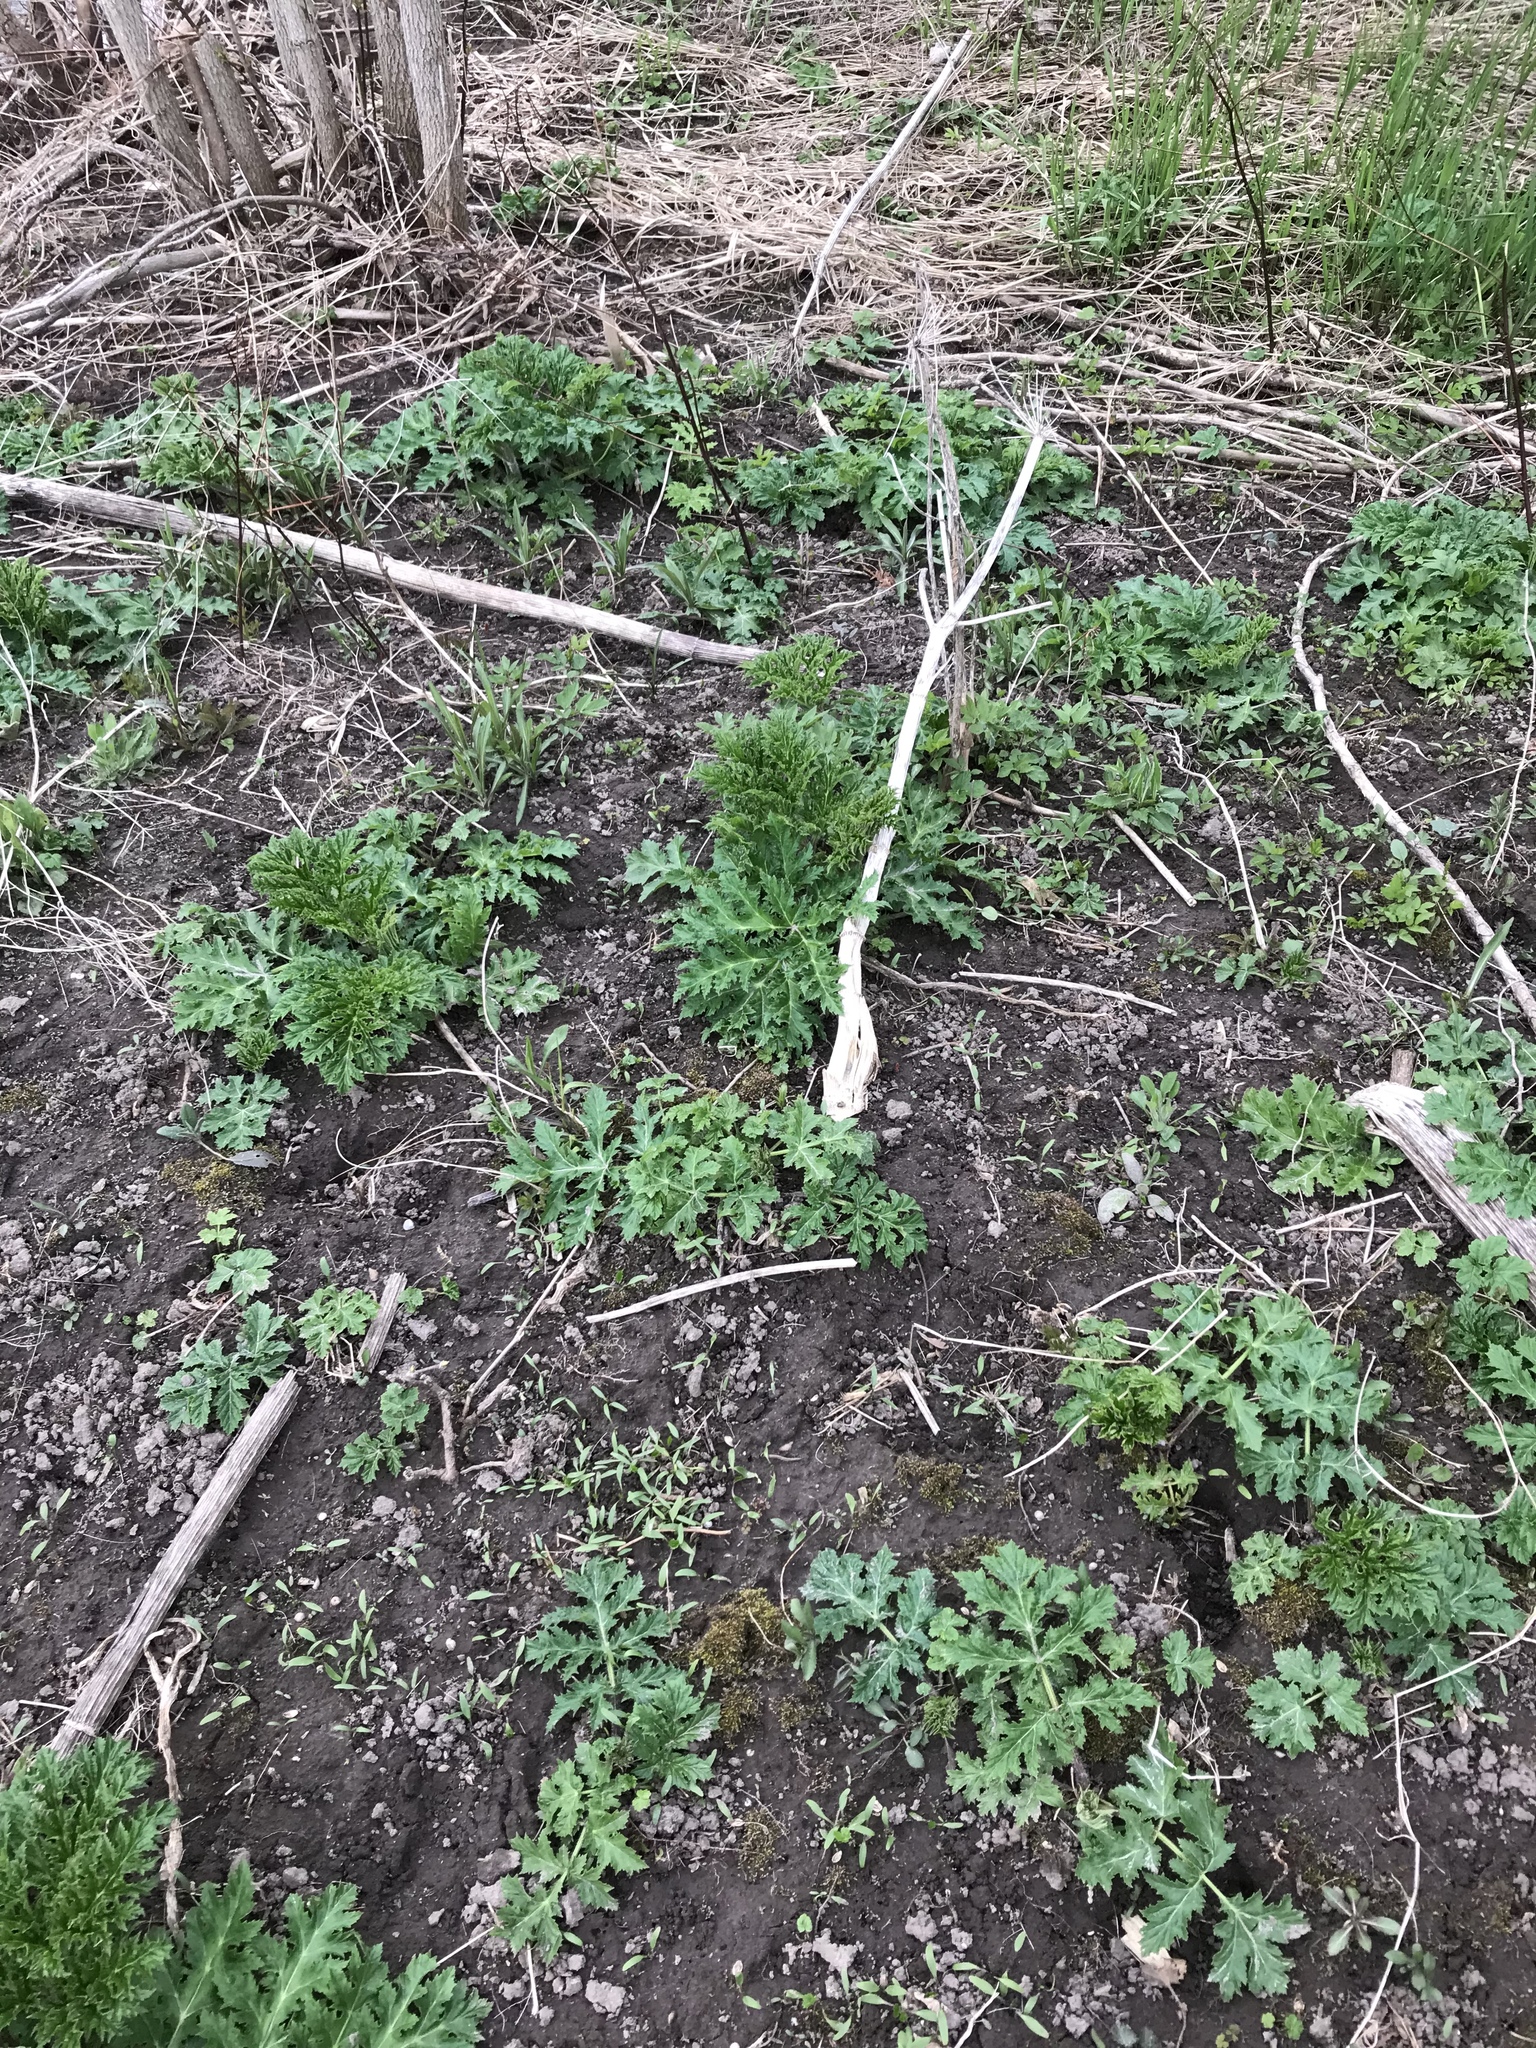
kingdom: Plantae
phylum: Tracheophyta
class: Magnoliopsida
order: Apiales
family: Apiaceae
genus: Heracleum
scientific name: Heracleum mantegazzianum
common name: Giant hogweed
